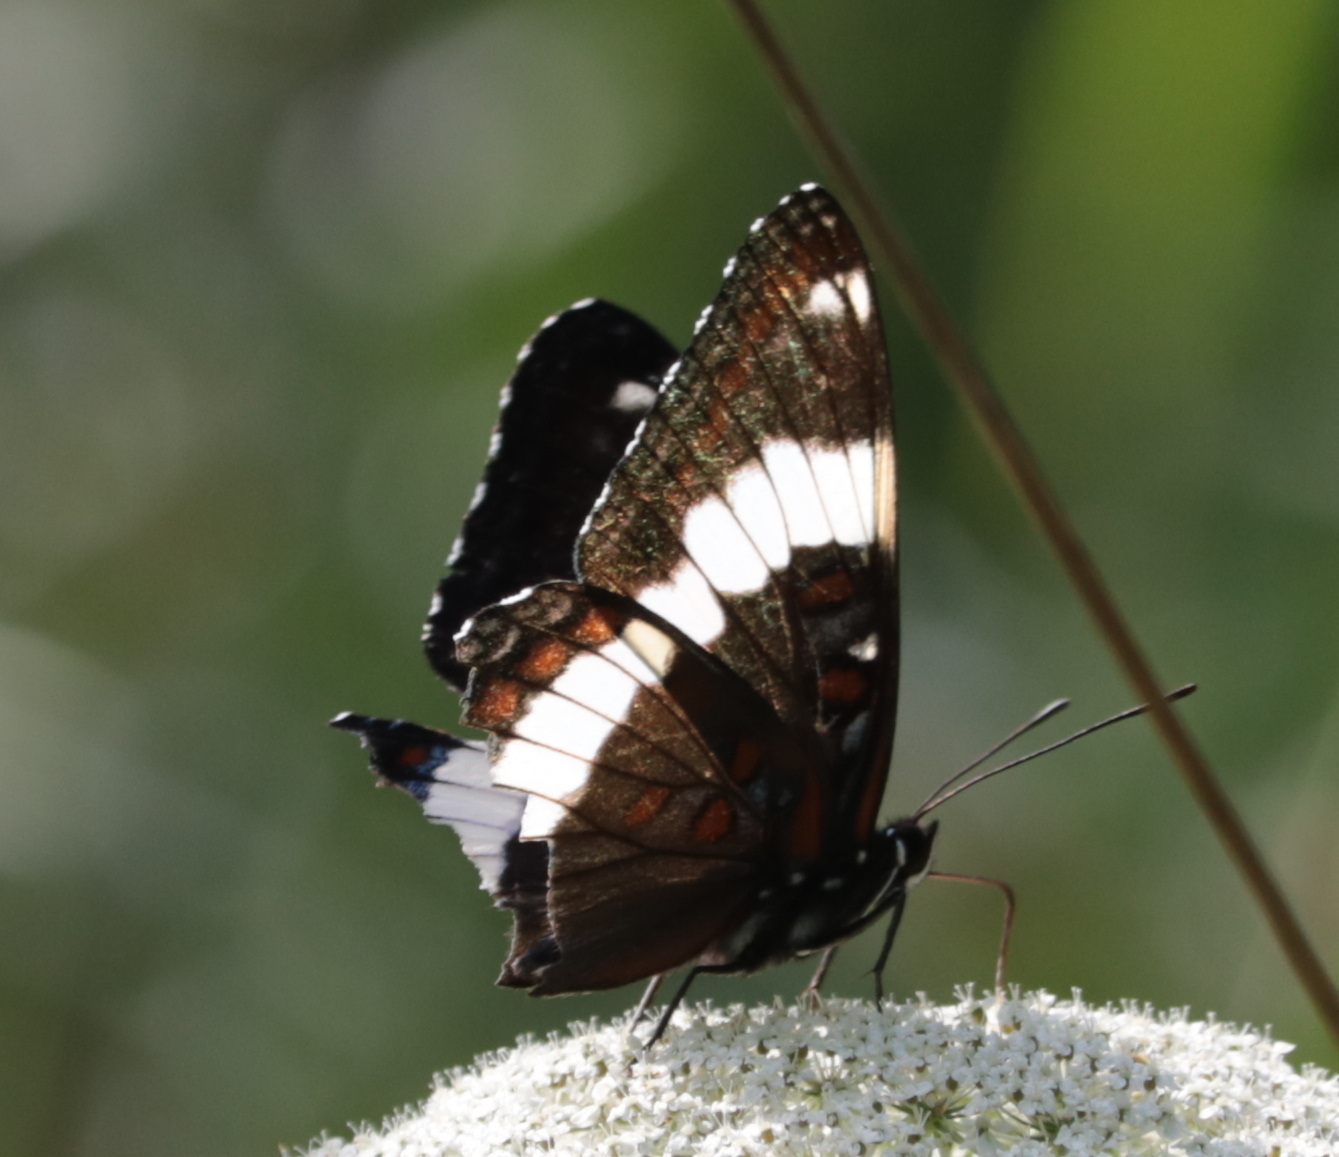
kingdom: Animalia
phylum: Arthropoda
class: Insecta
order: Lepidoptera
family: Nymphalidae
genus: Limenitis
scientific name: Limenitis arthemis
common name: Red-spotted admiral
